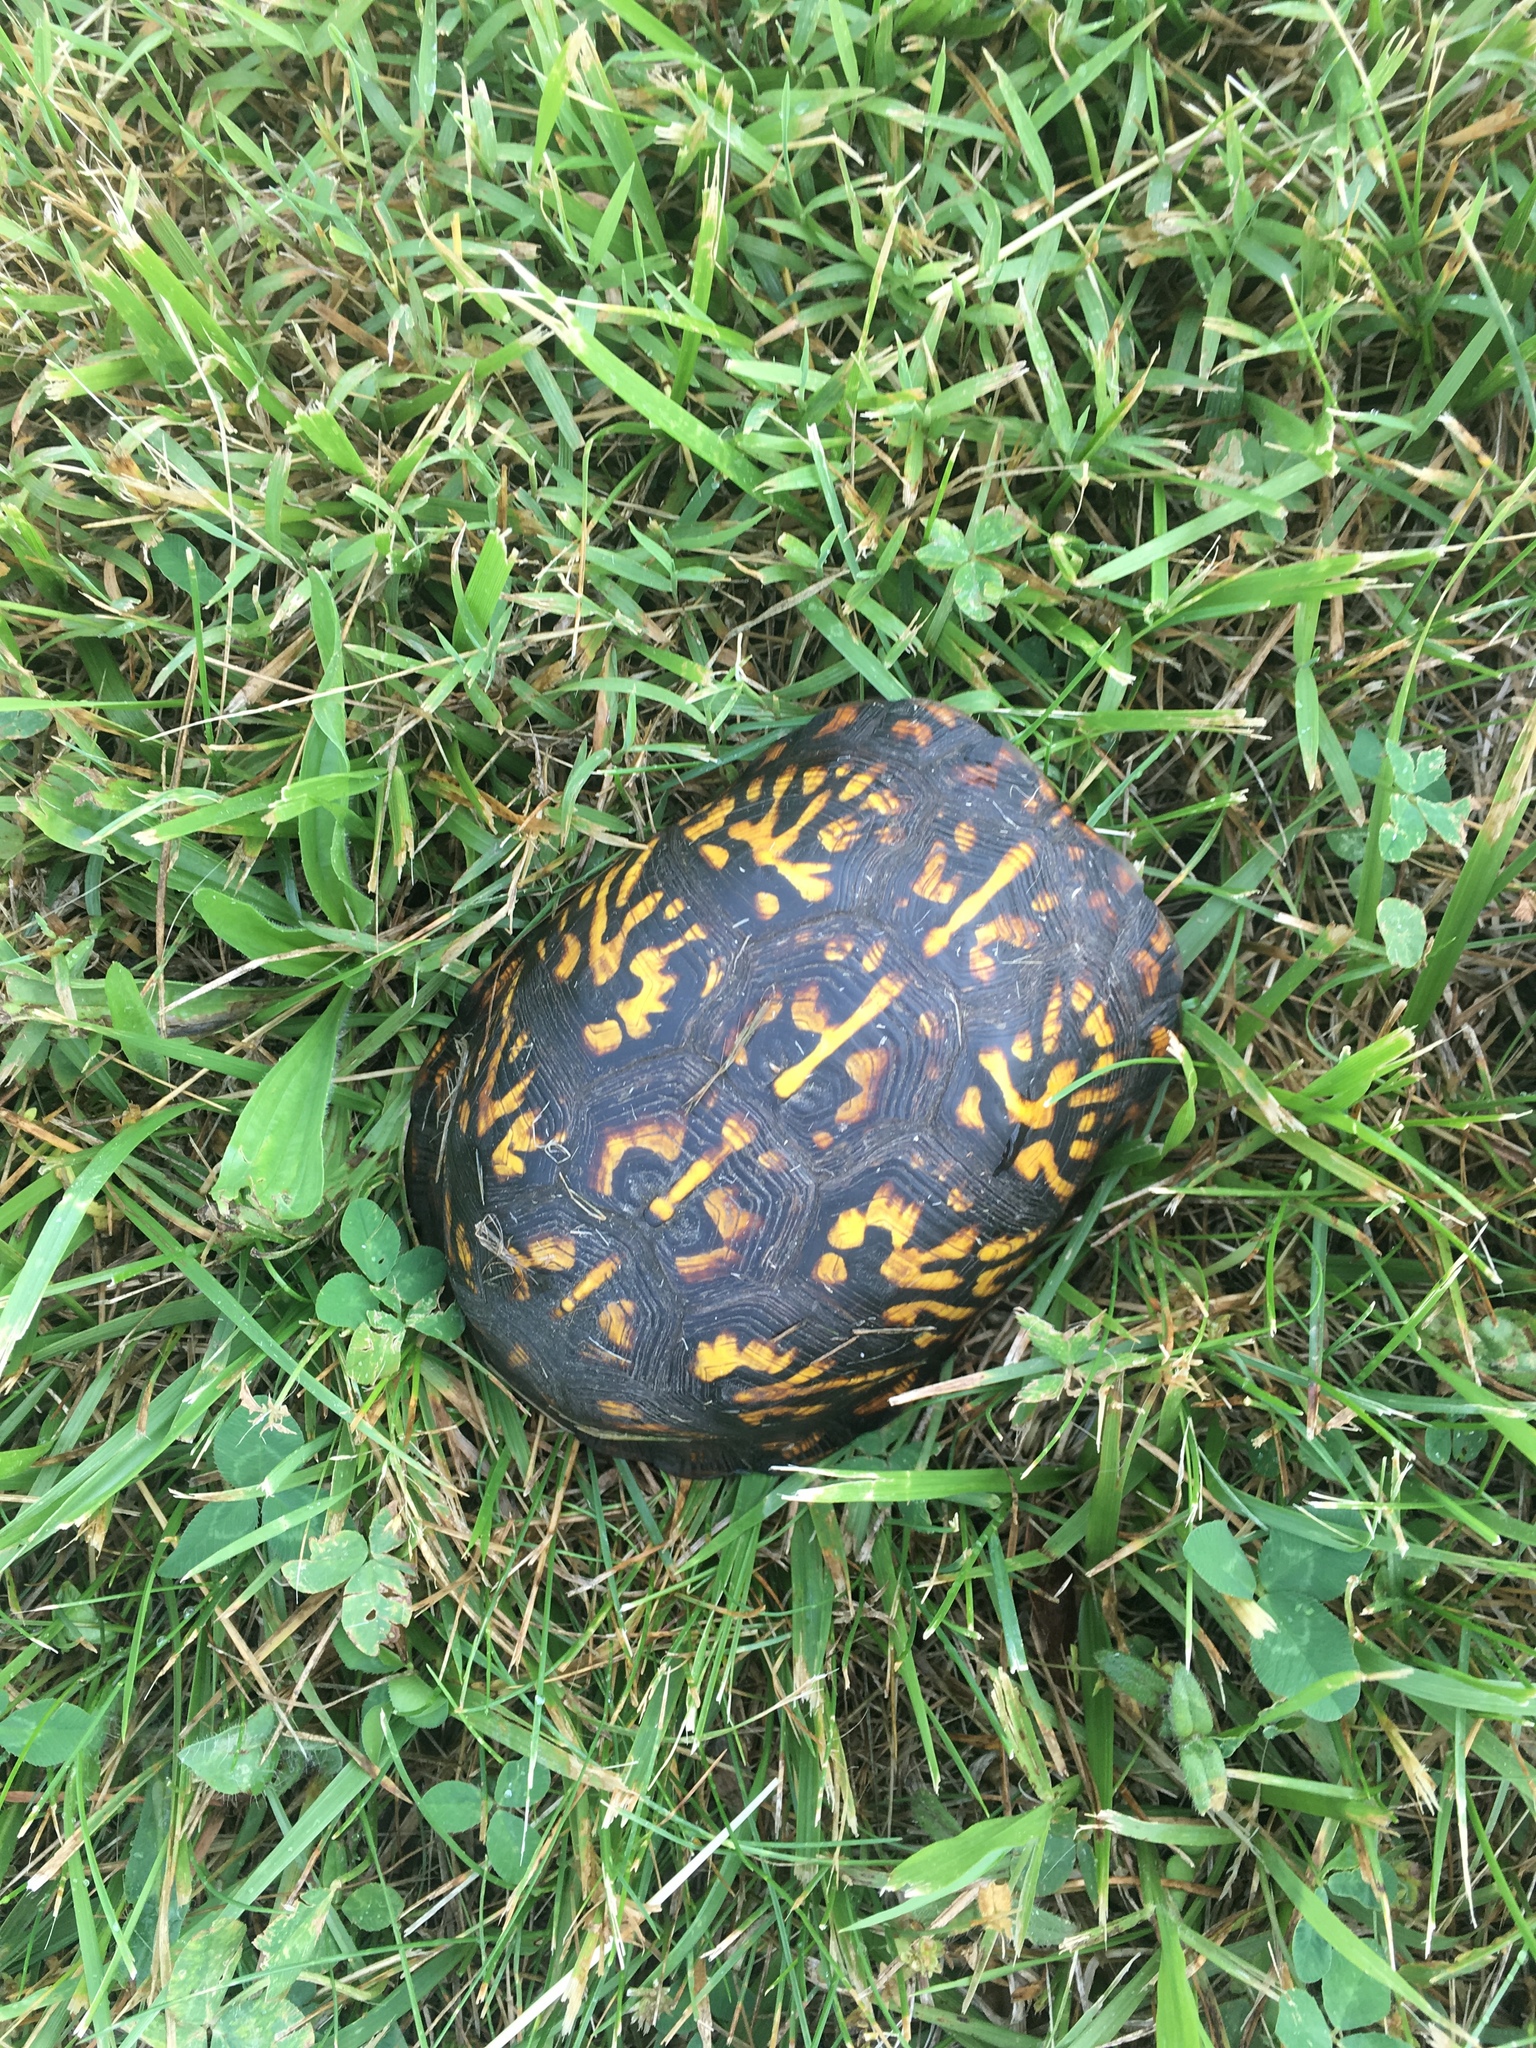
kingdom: Animalia
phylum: Chordata
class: Testudines
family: Emydidae
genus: Terrapene
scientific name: Terrapene carolina
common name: Common box turtle
